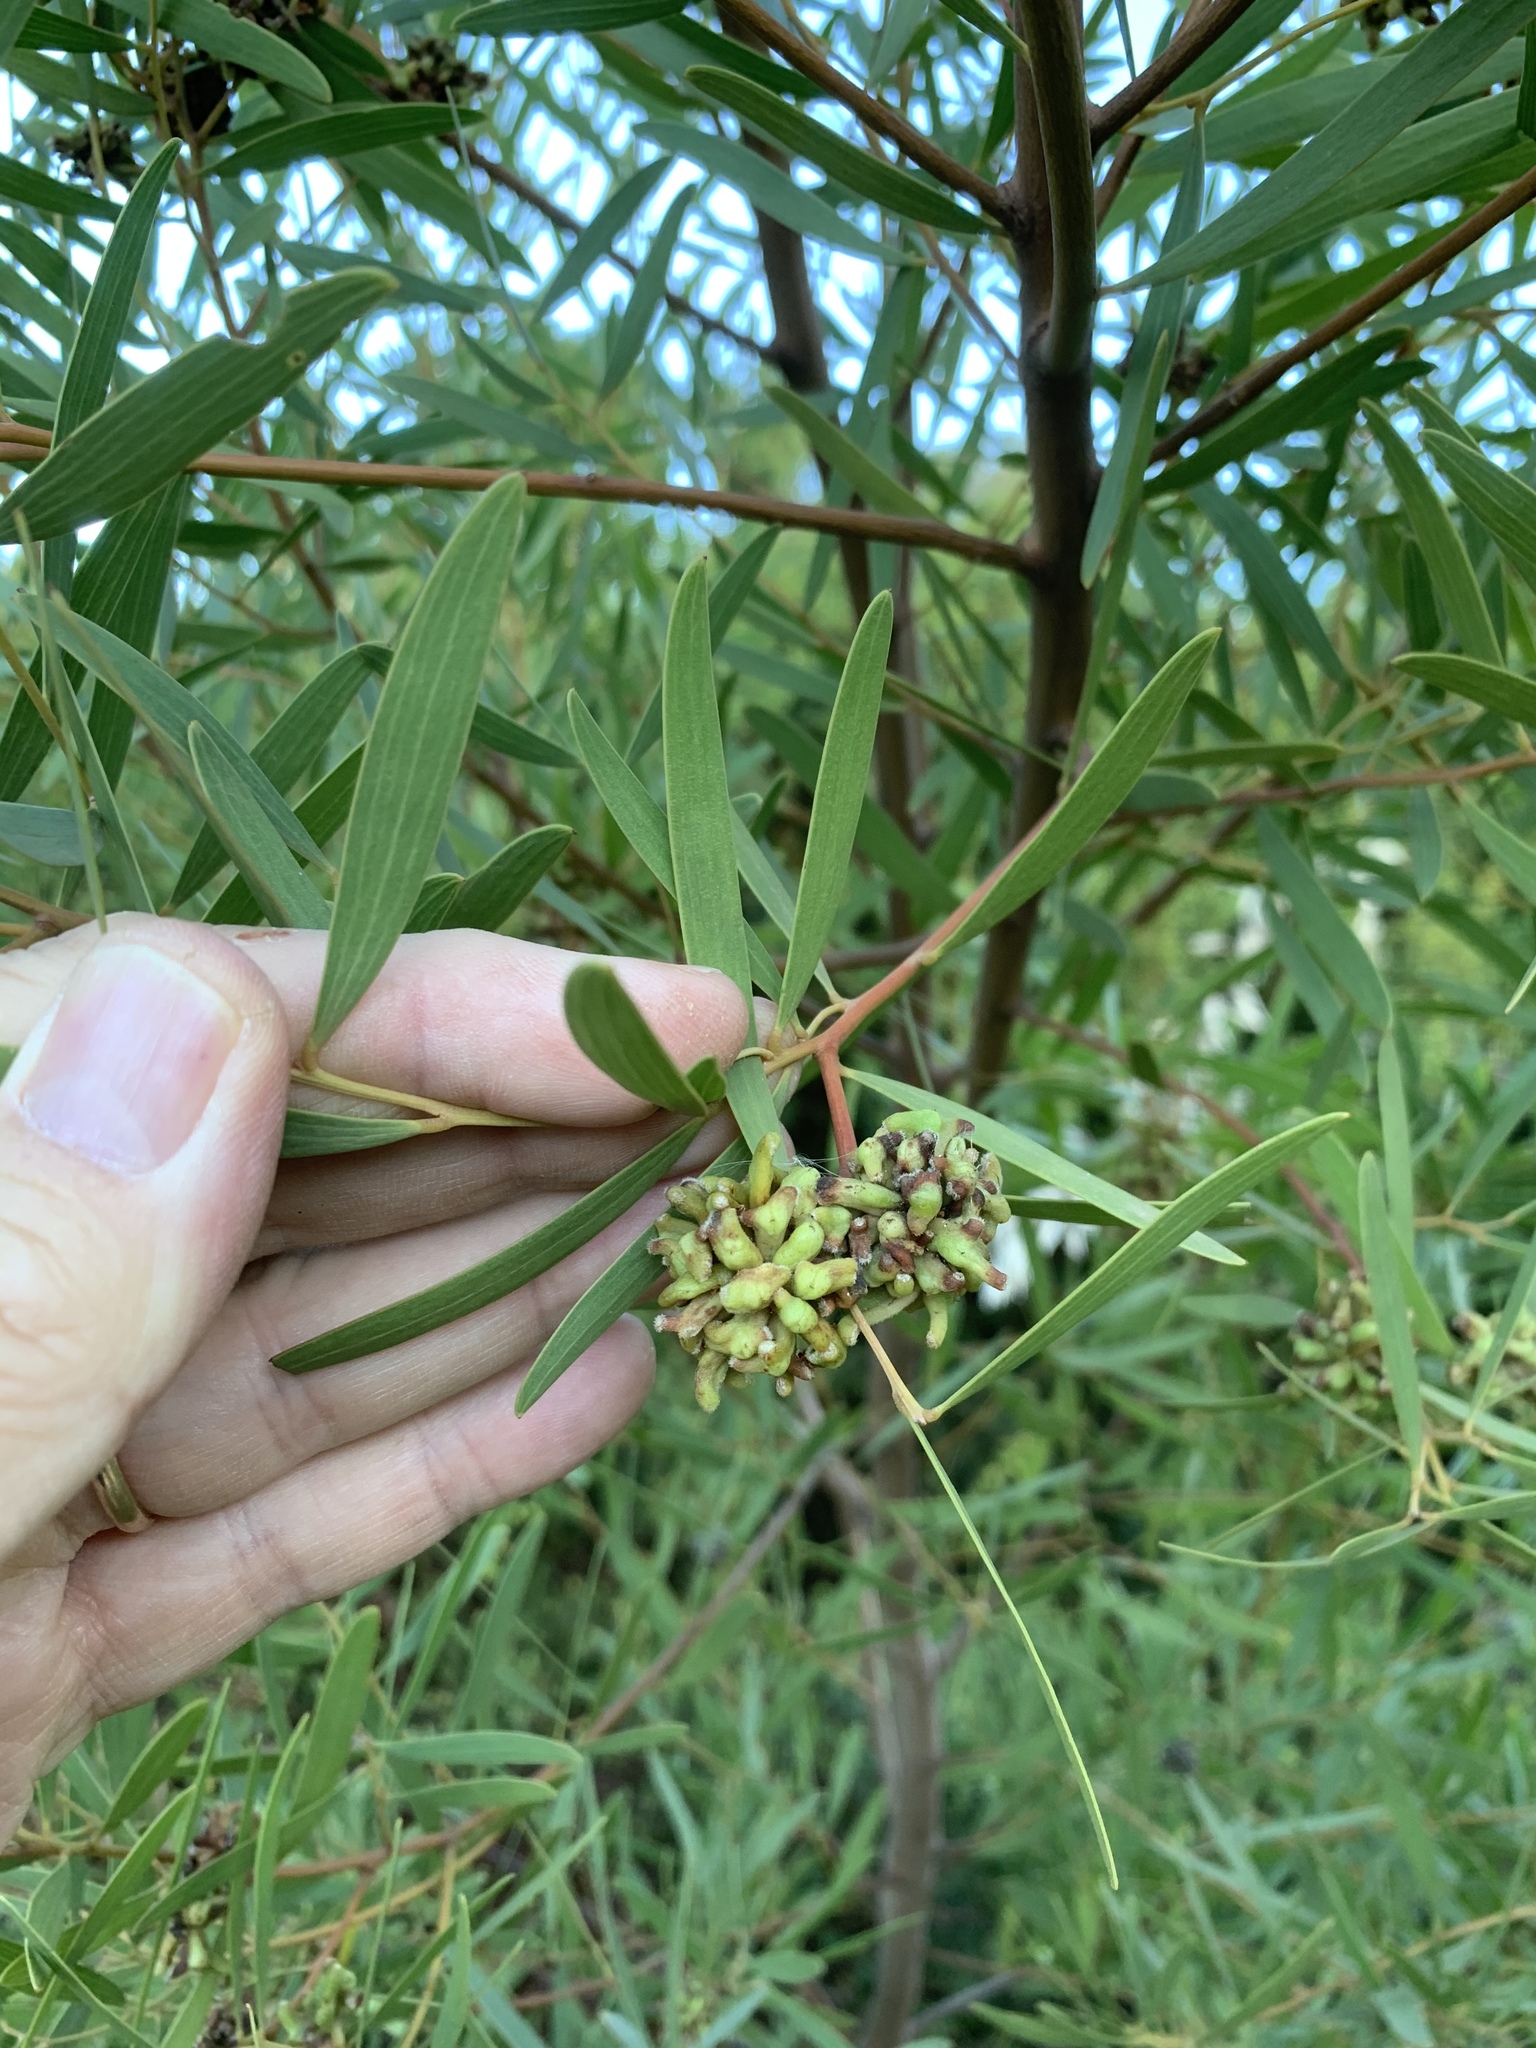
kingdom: Animalia
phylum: Arthropoda
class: Insecta
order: Diptera
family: Cecidomyiidae
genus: Dasineura
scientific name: Dasineura dielsi
